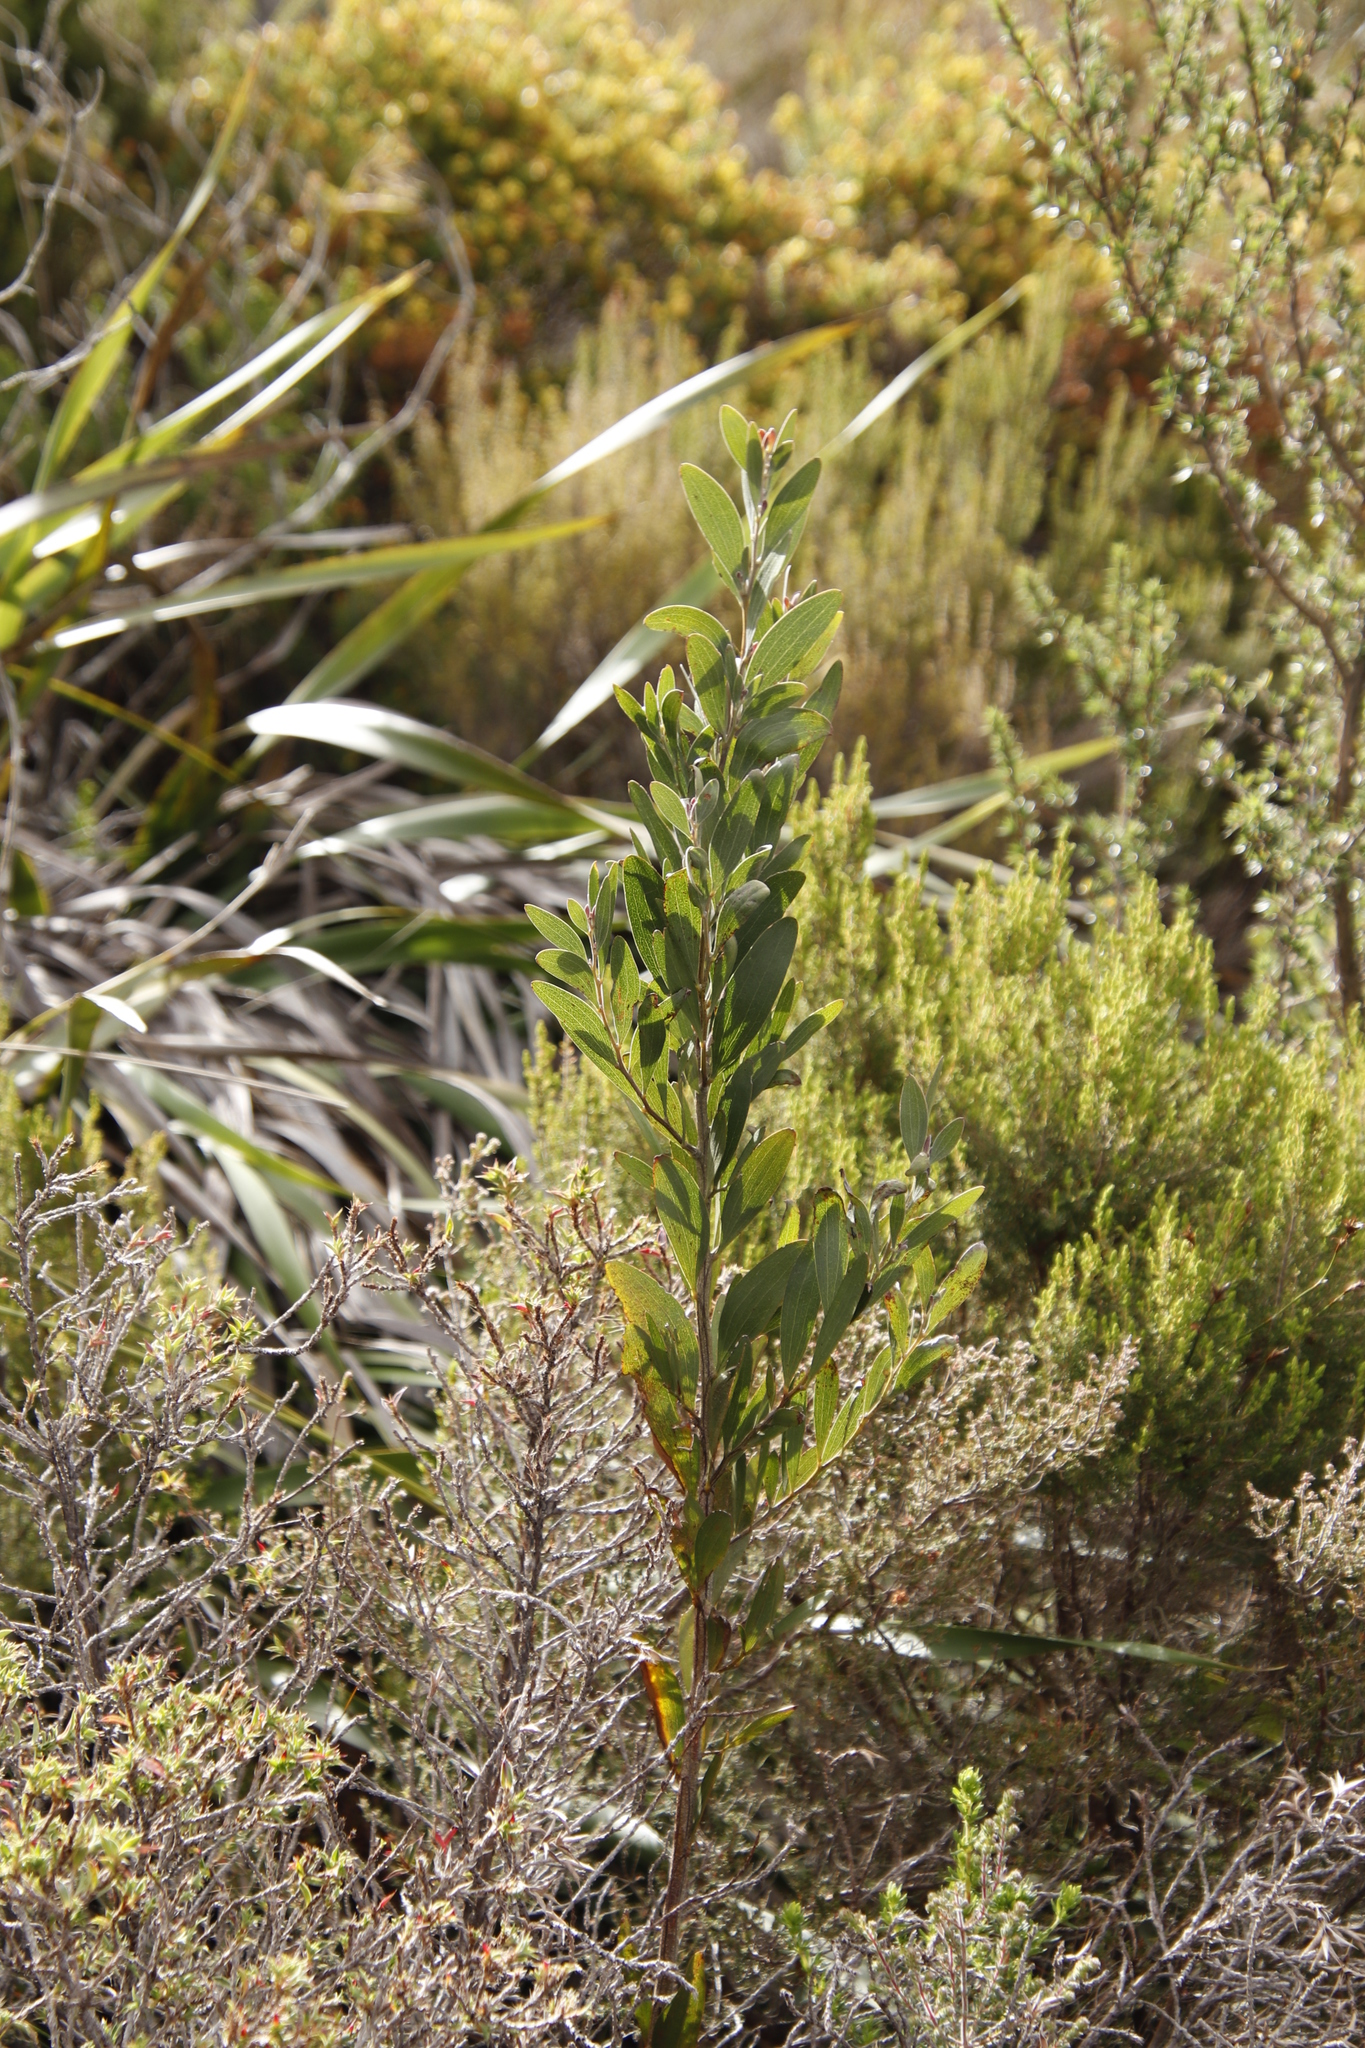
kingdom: Plantae
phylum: Tracheophyta
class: Magnoliopsida
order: Fabales
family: Fabaceae
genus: Acacia
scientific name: Acacia melanoxylon
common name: Blackwood
